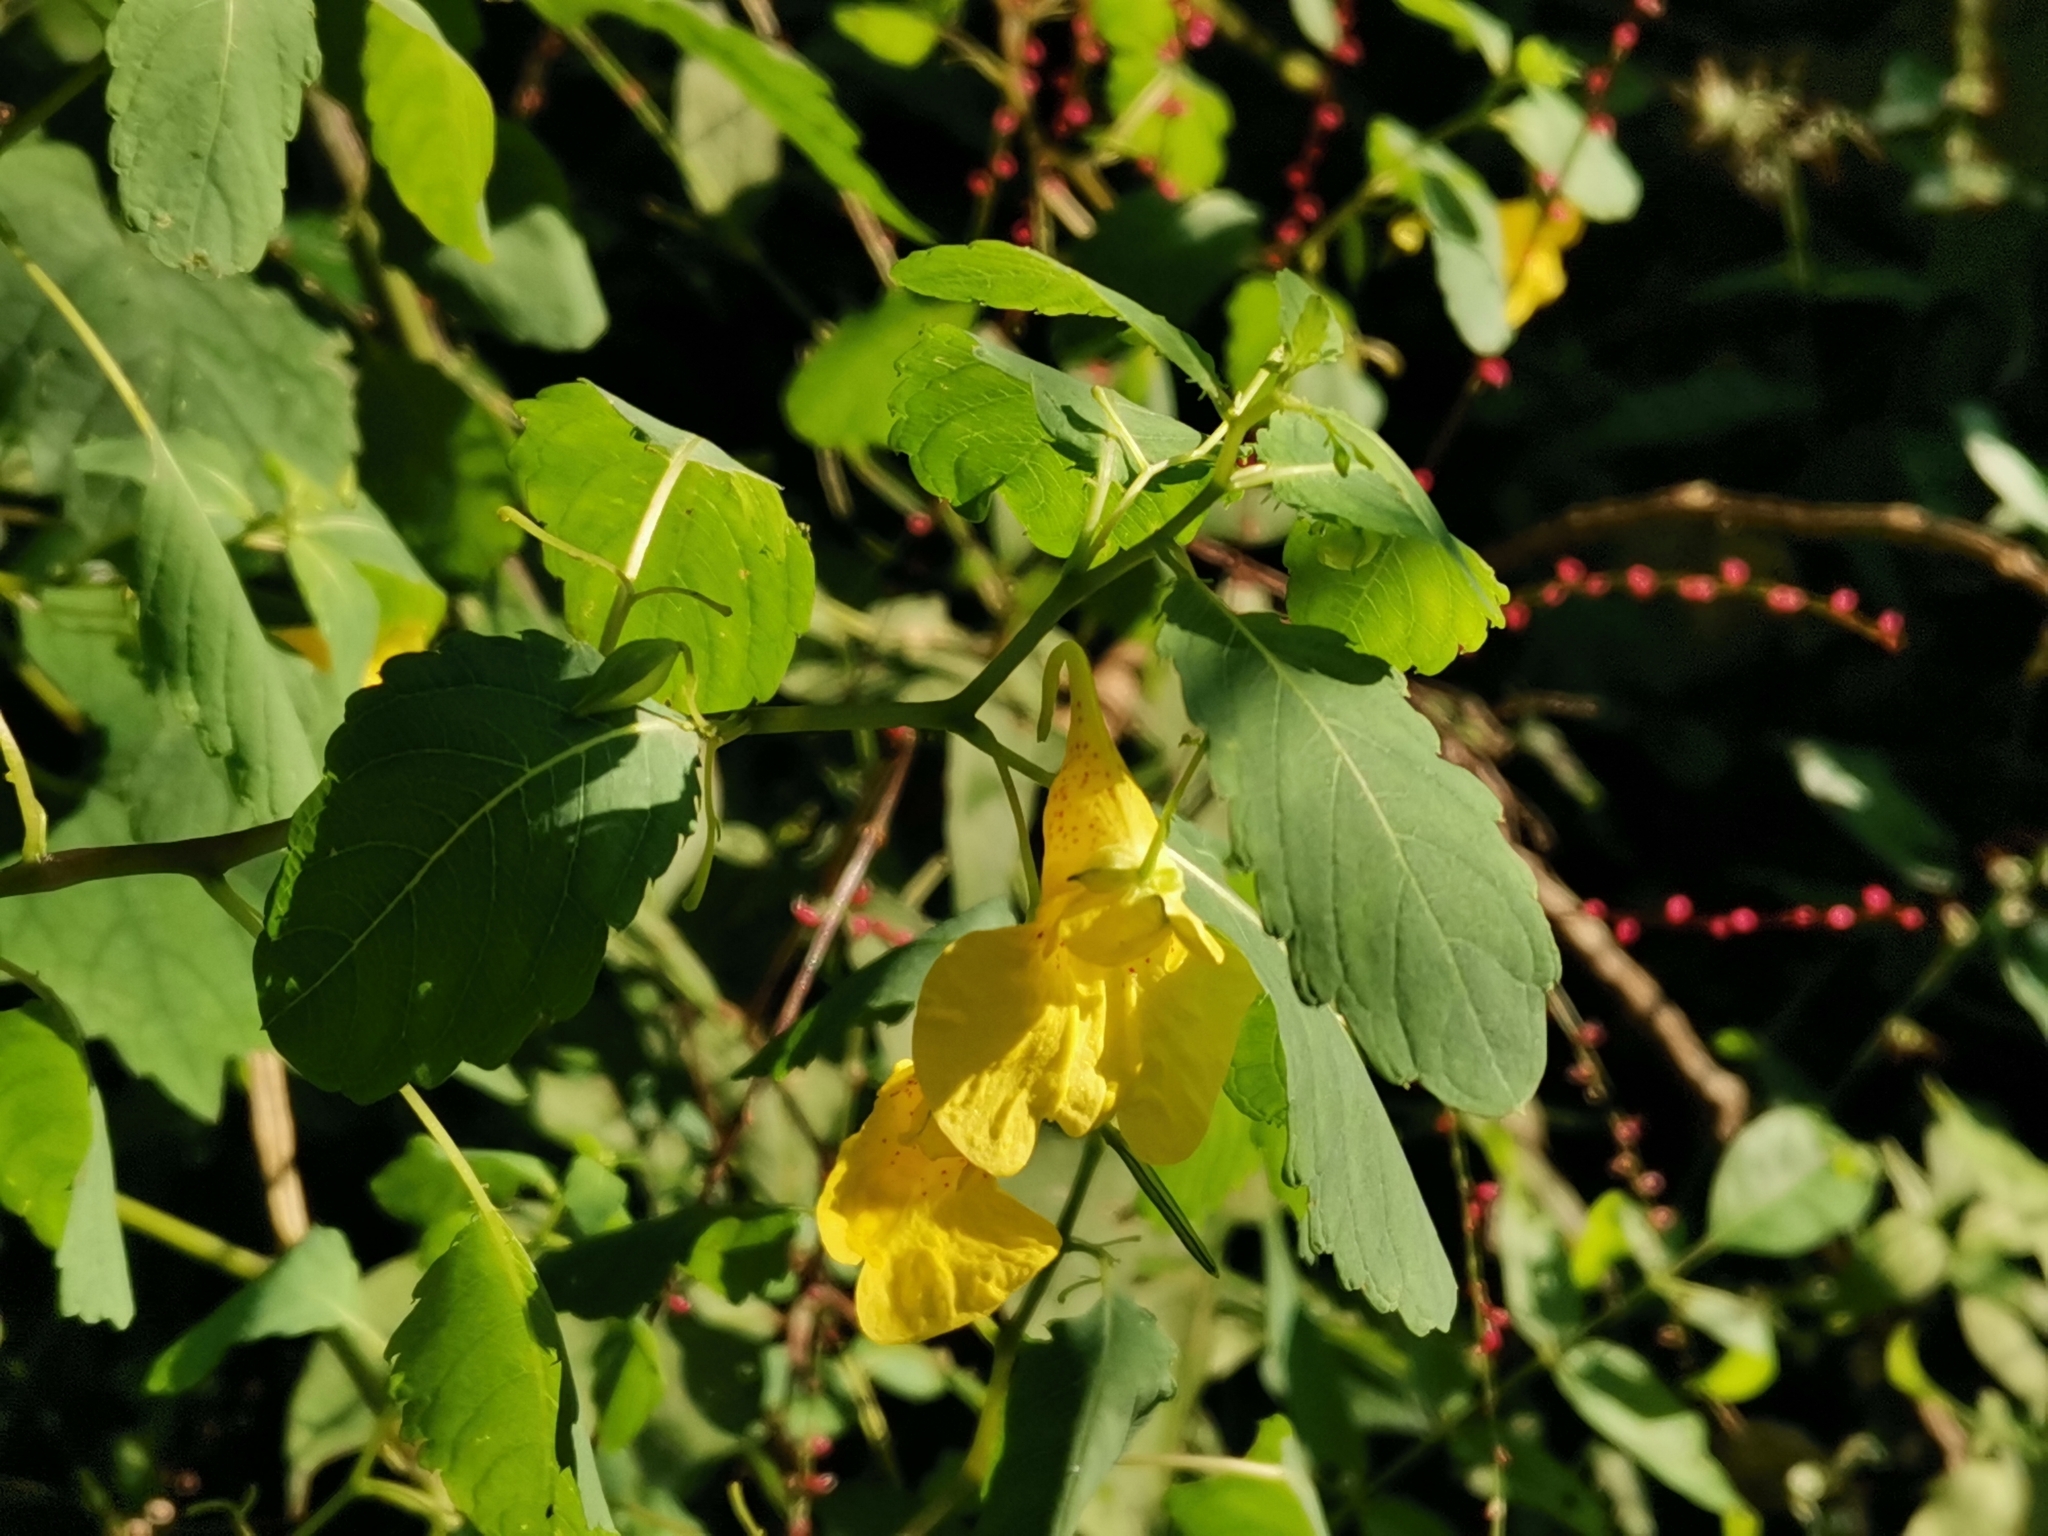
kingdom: Plantae
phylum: Tracheophyta
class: Magnoliopsida
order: Ericales
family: Balsaminaceae
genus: Impatiens
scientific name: Impatiens noli-tangere
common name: Touch-me-not balsam
